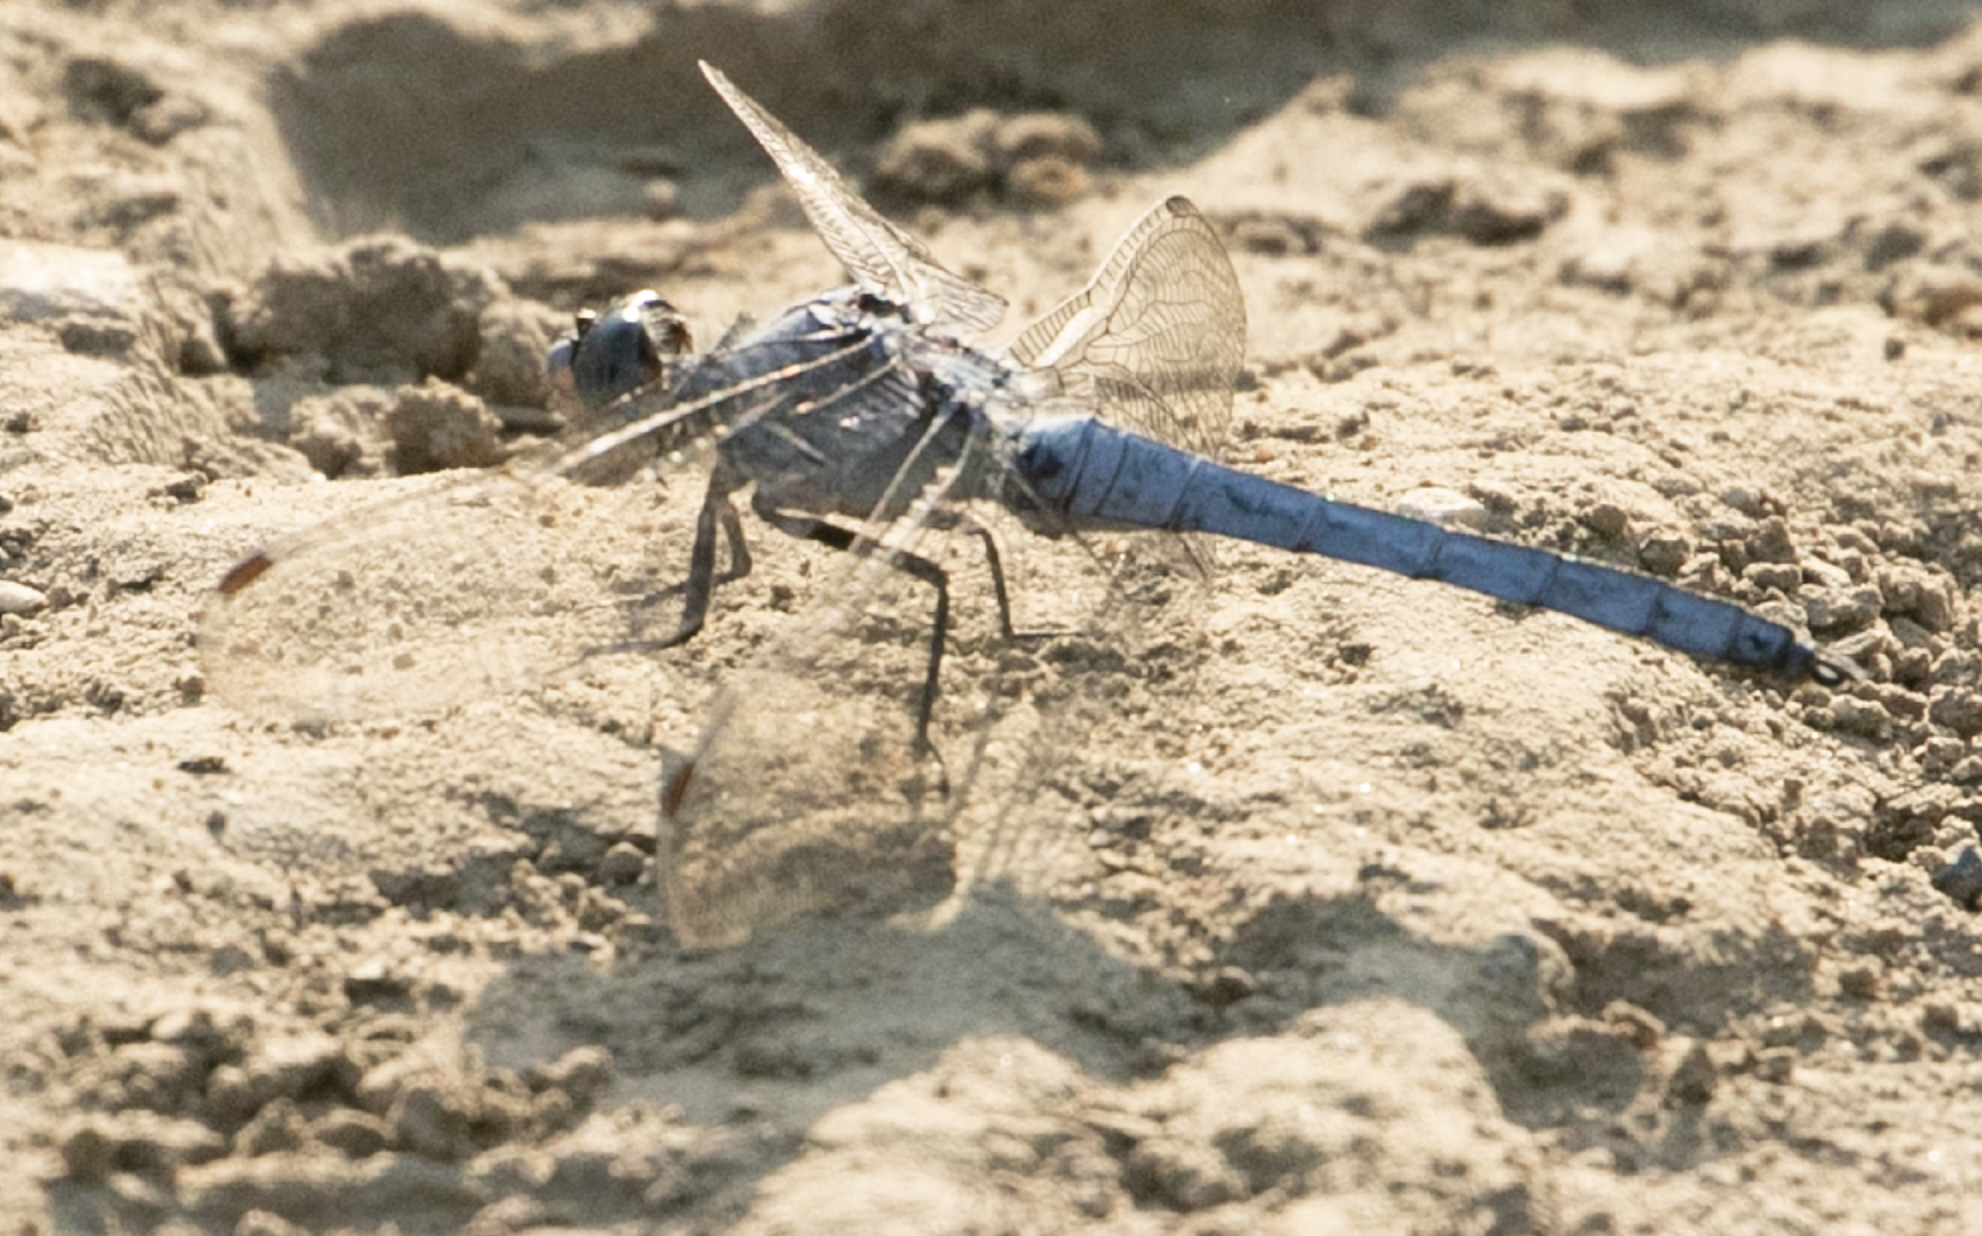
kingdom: Animalia
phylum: Arthropoda
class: Insecta
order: Odonata
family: Libellulidae
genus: Orthetrum
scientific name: Orthetrum brunneum
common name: Southern skimmer
